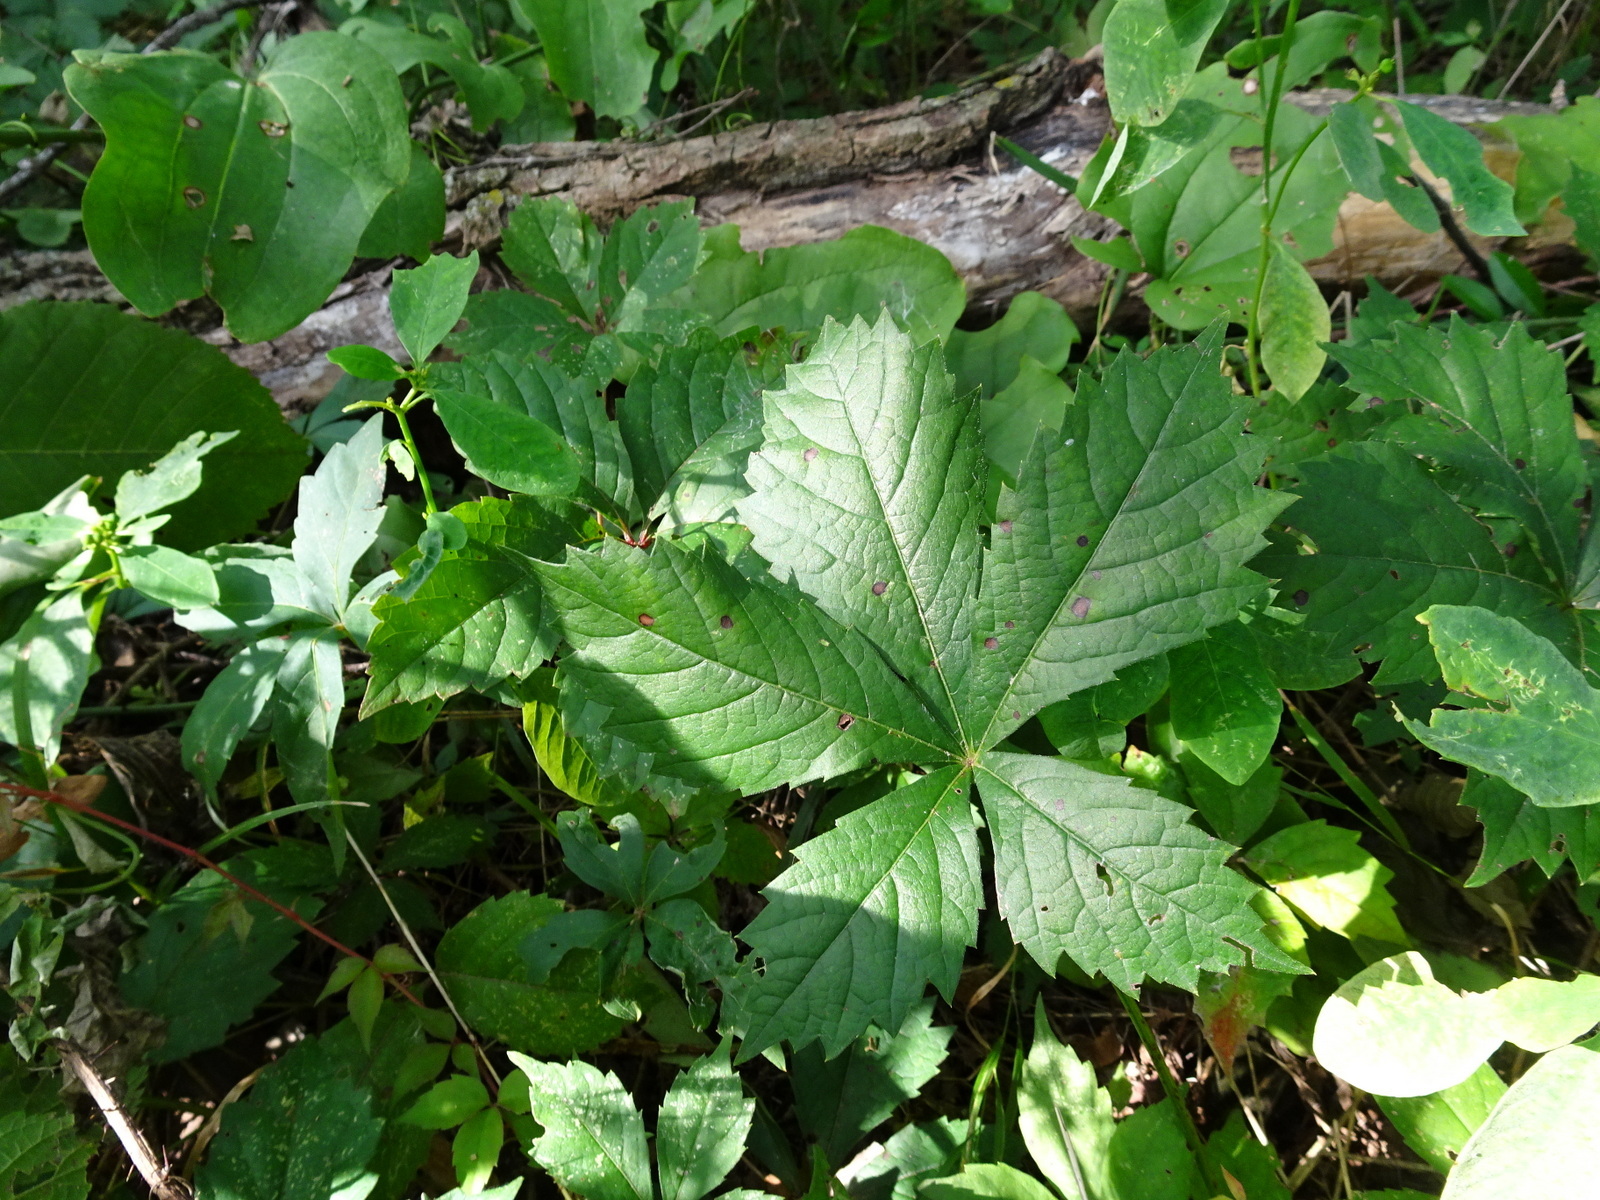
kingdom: Plantae
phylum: Tracheophyta
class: Magnoliopsida
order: Vitales
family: Vitaceae
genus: Parthenocissus
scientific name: Parthenocissus quinquefolia
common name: Virginia-creeper
